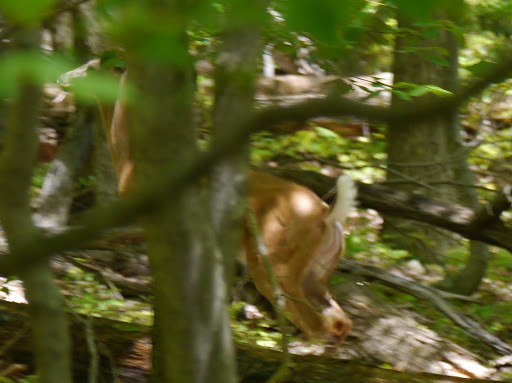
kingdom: Animalia
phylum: Chordata
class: Mammalia
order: Artiodactyla
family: Cervidae
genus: Odocoileus
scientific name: Odocoileus virginianus
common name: White-tailed deer
